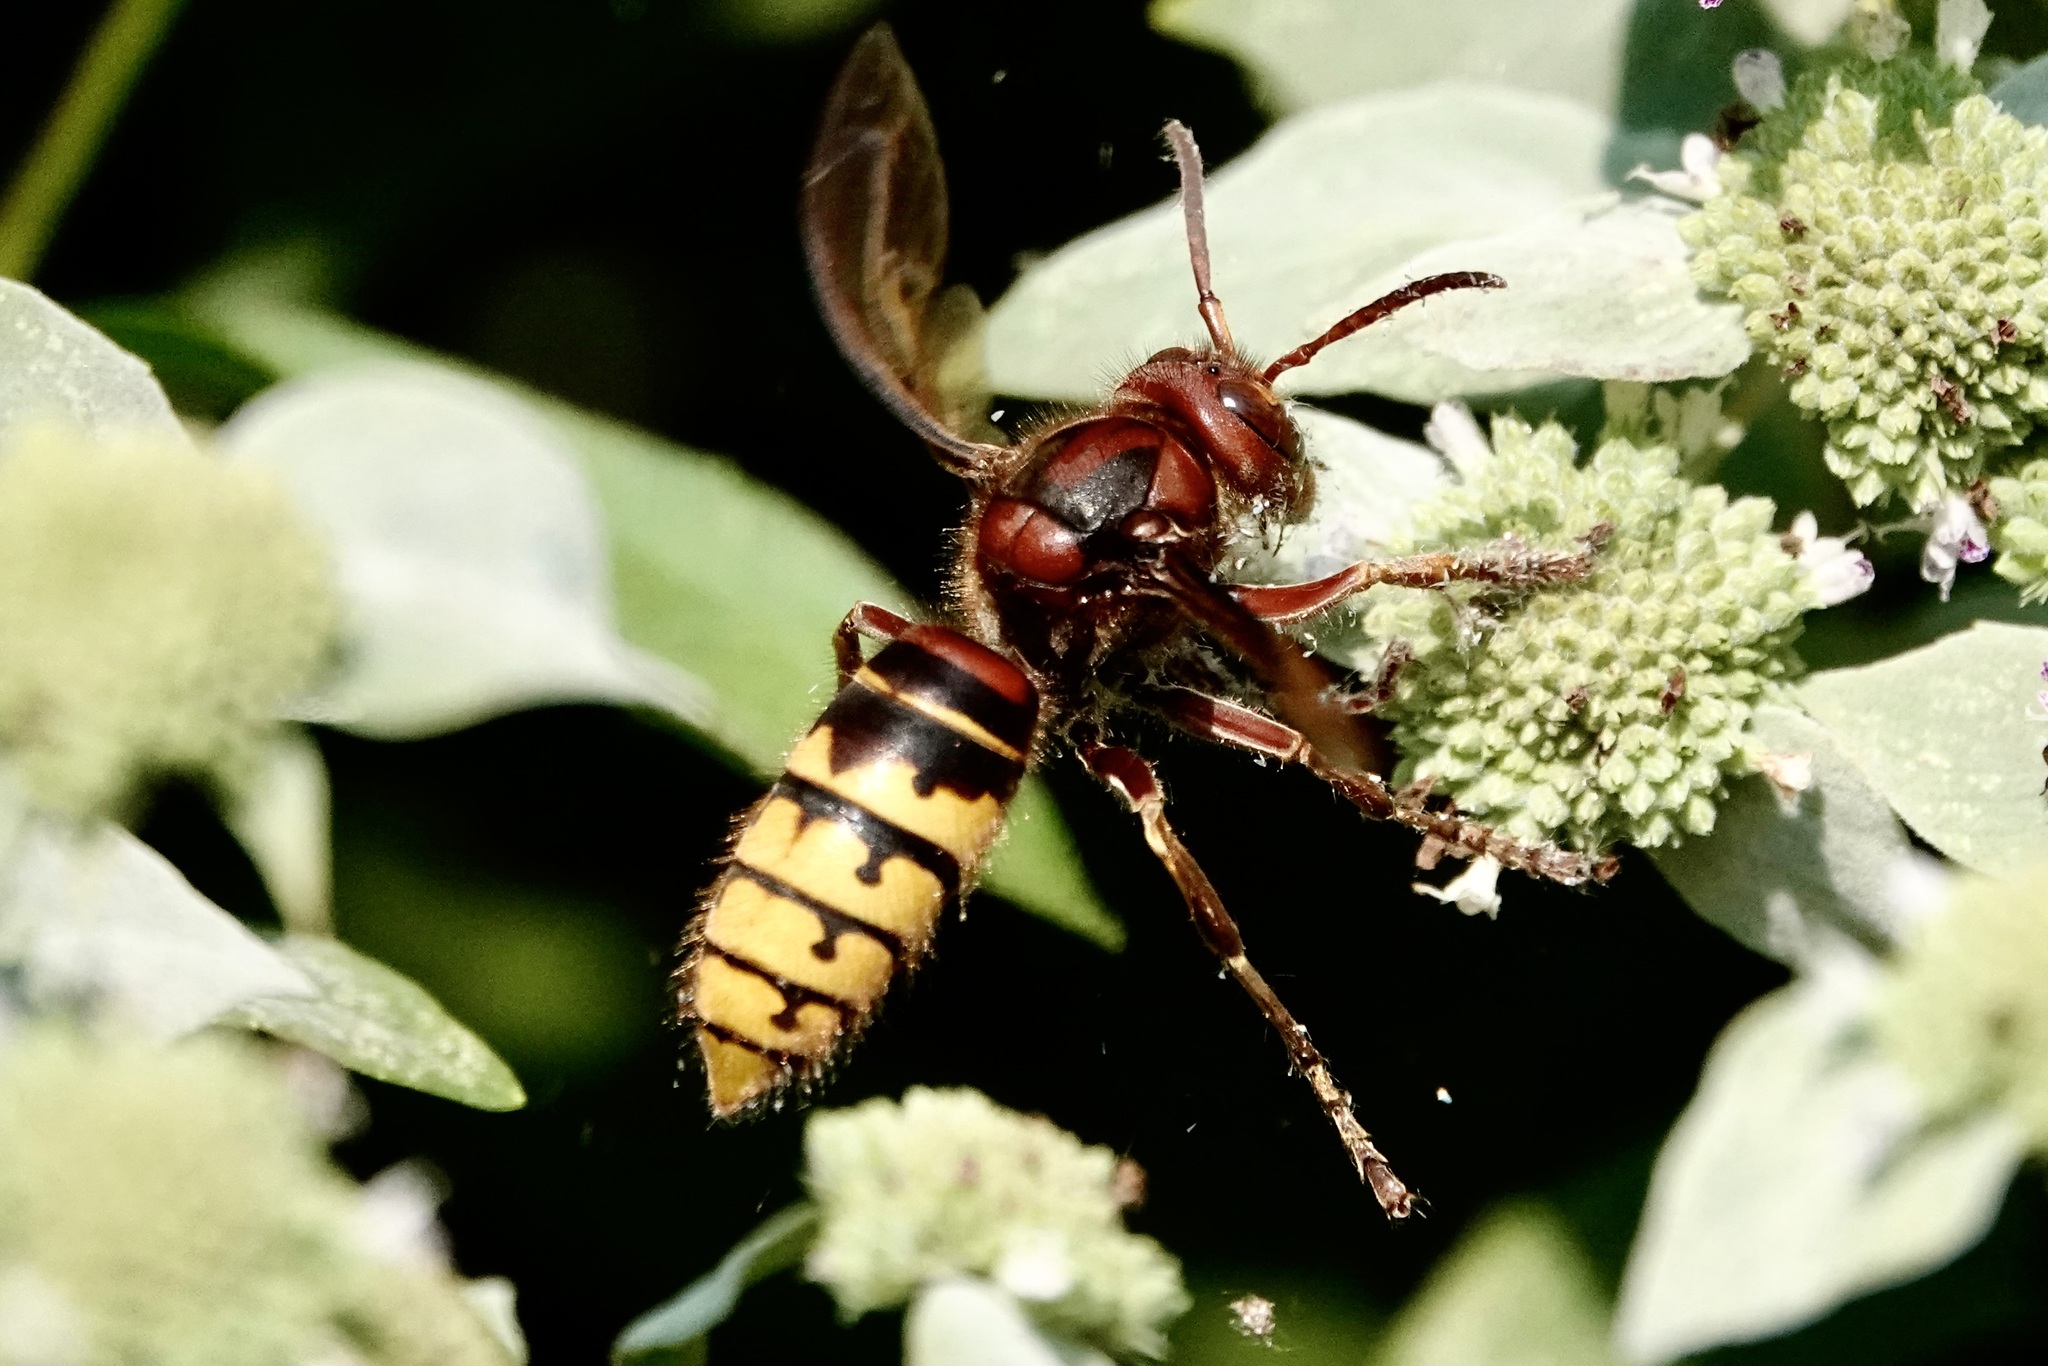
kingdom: Animalia
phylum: Arthropoda
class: Insecta
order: Hymenoptera
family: Vespidae
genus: Vespa
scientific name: Vespa crabro
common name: Hornet
